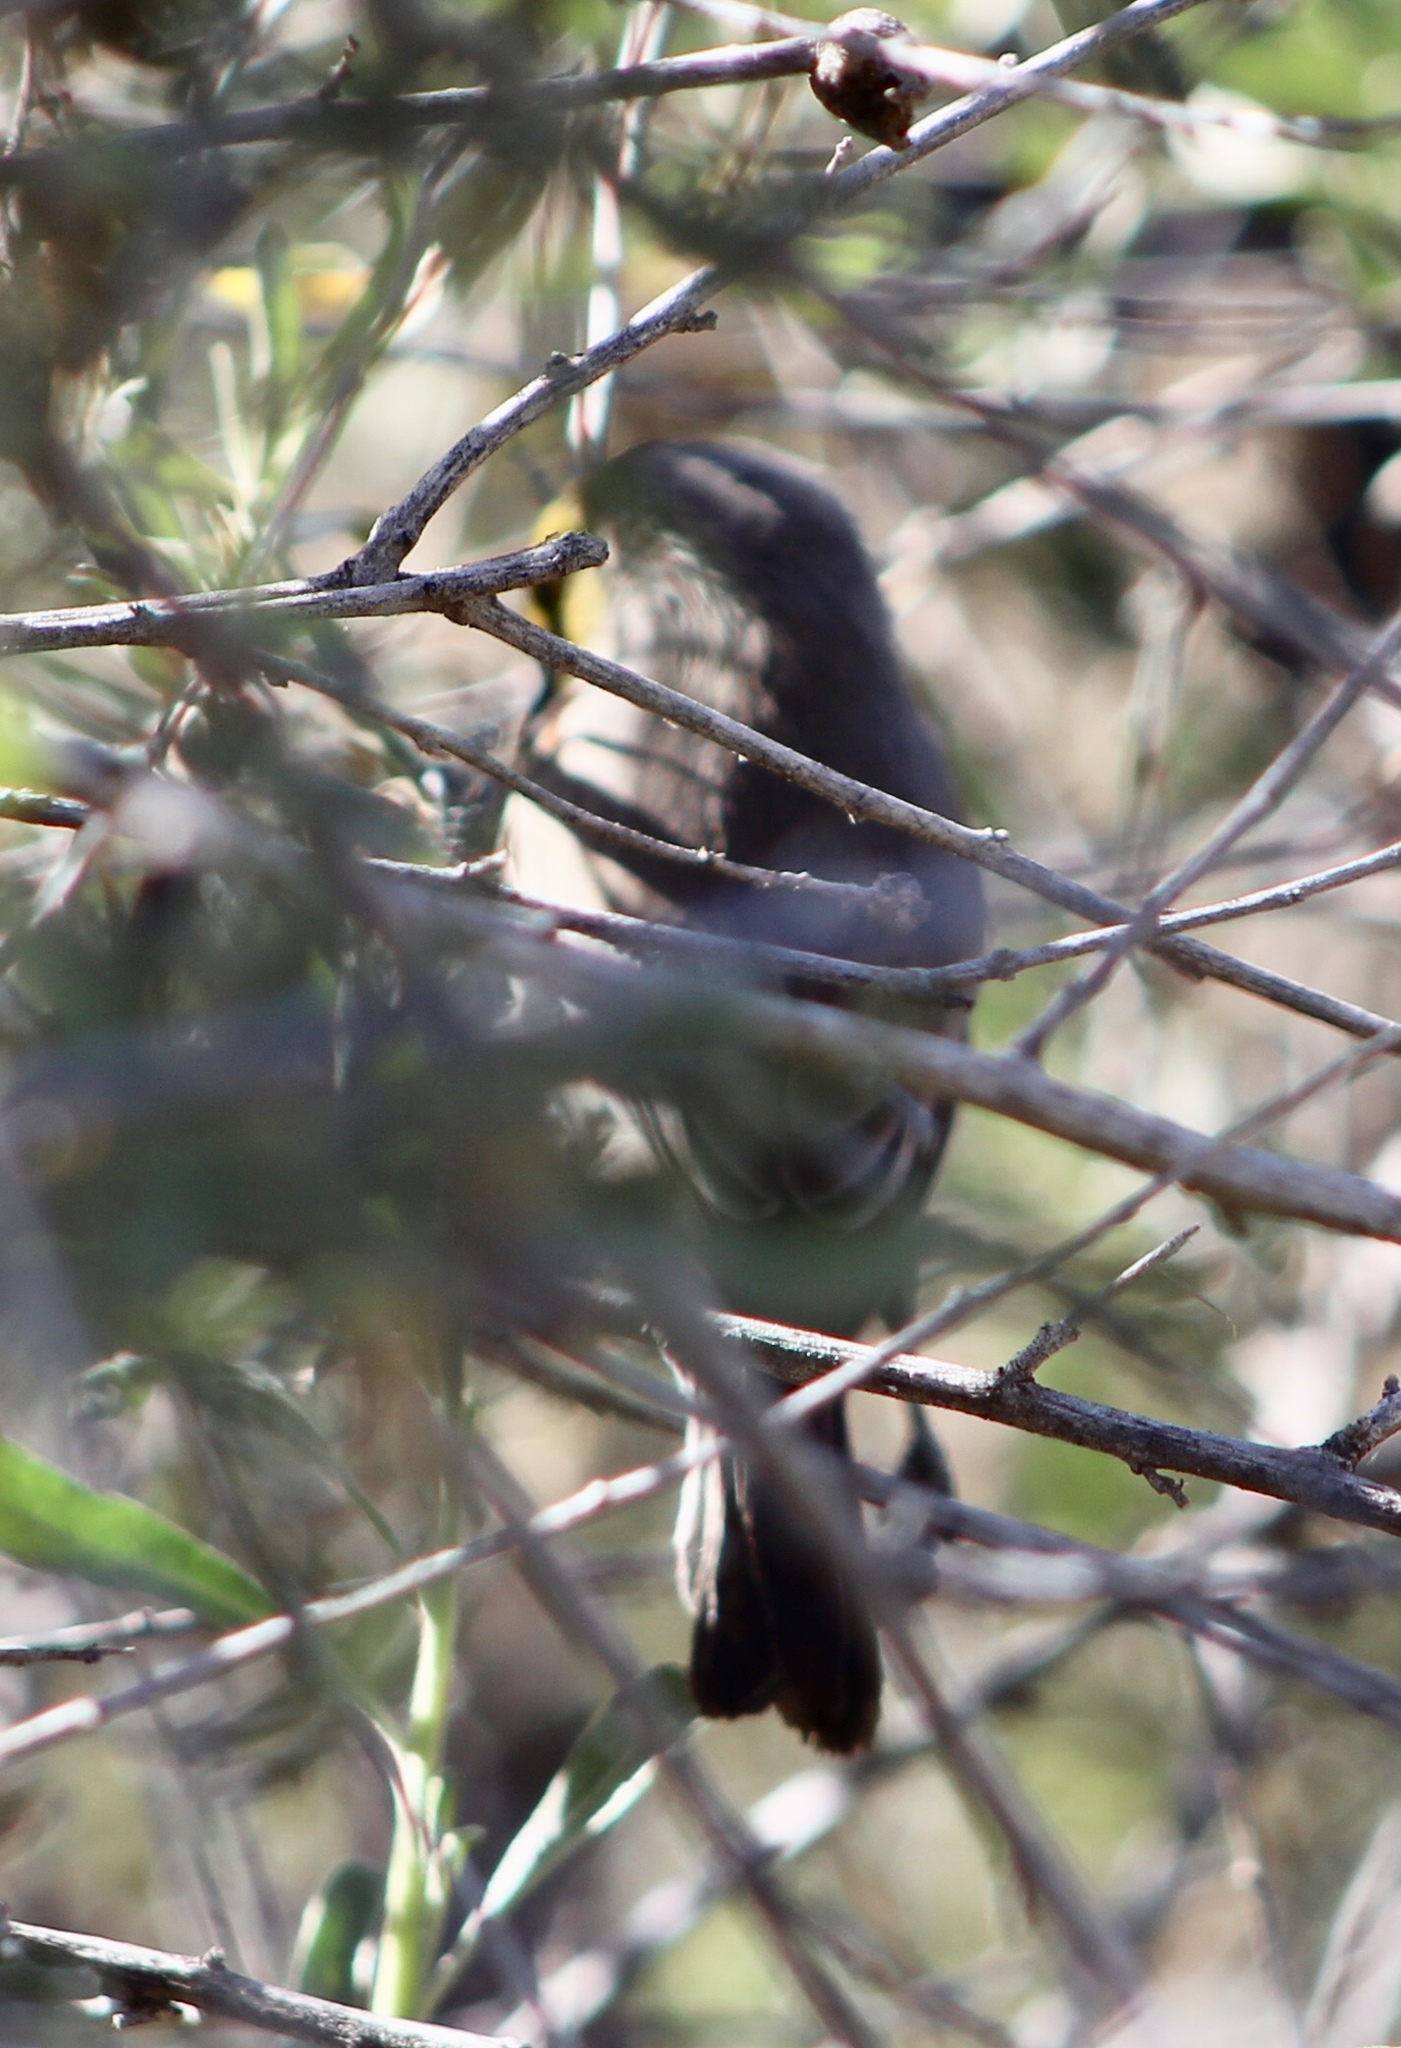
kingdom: Animalia
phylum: Chordata
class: Aves
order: Passeriformes
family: Remizidae
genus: Auriparus
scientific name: Auriparus flaviceps
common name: Verdin
